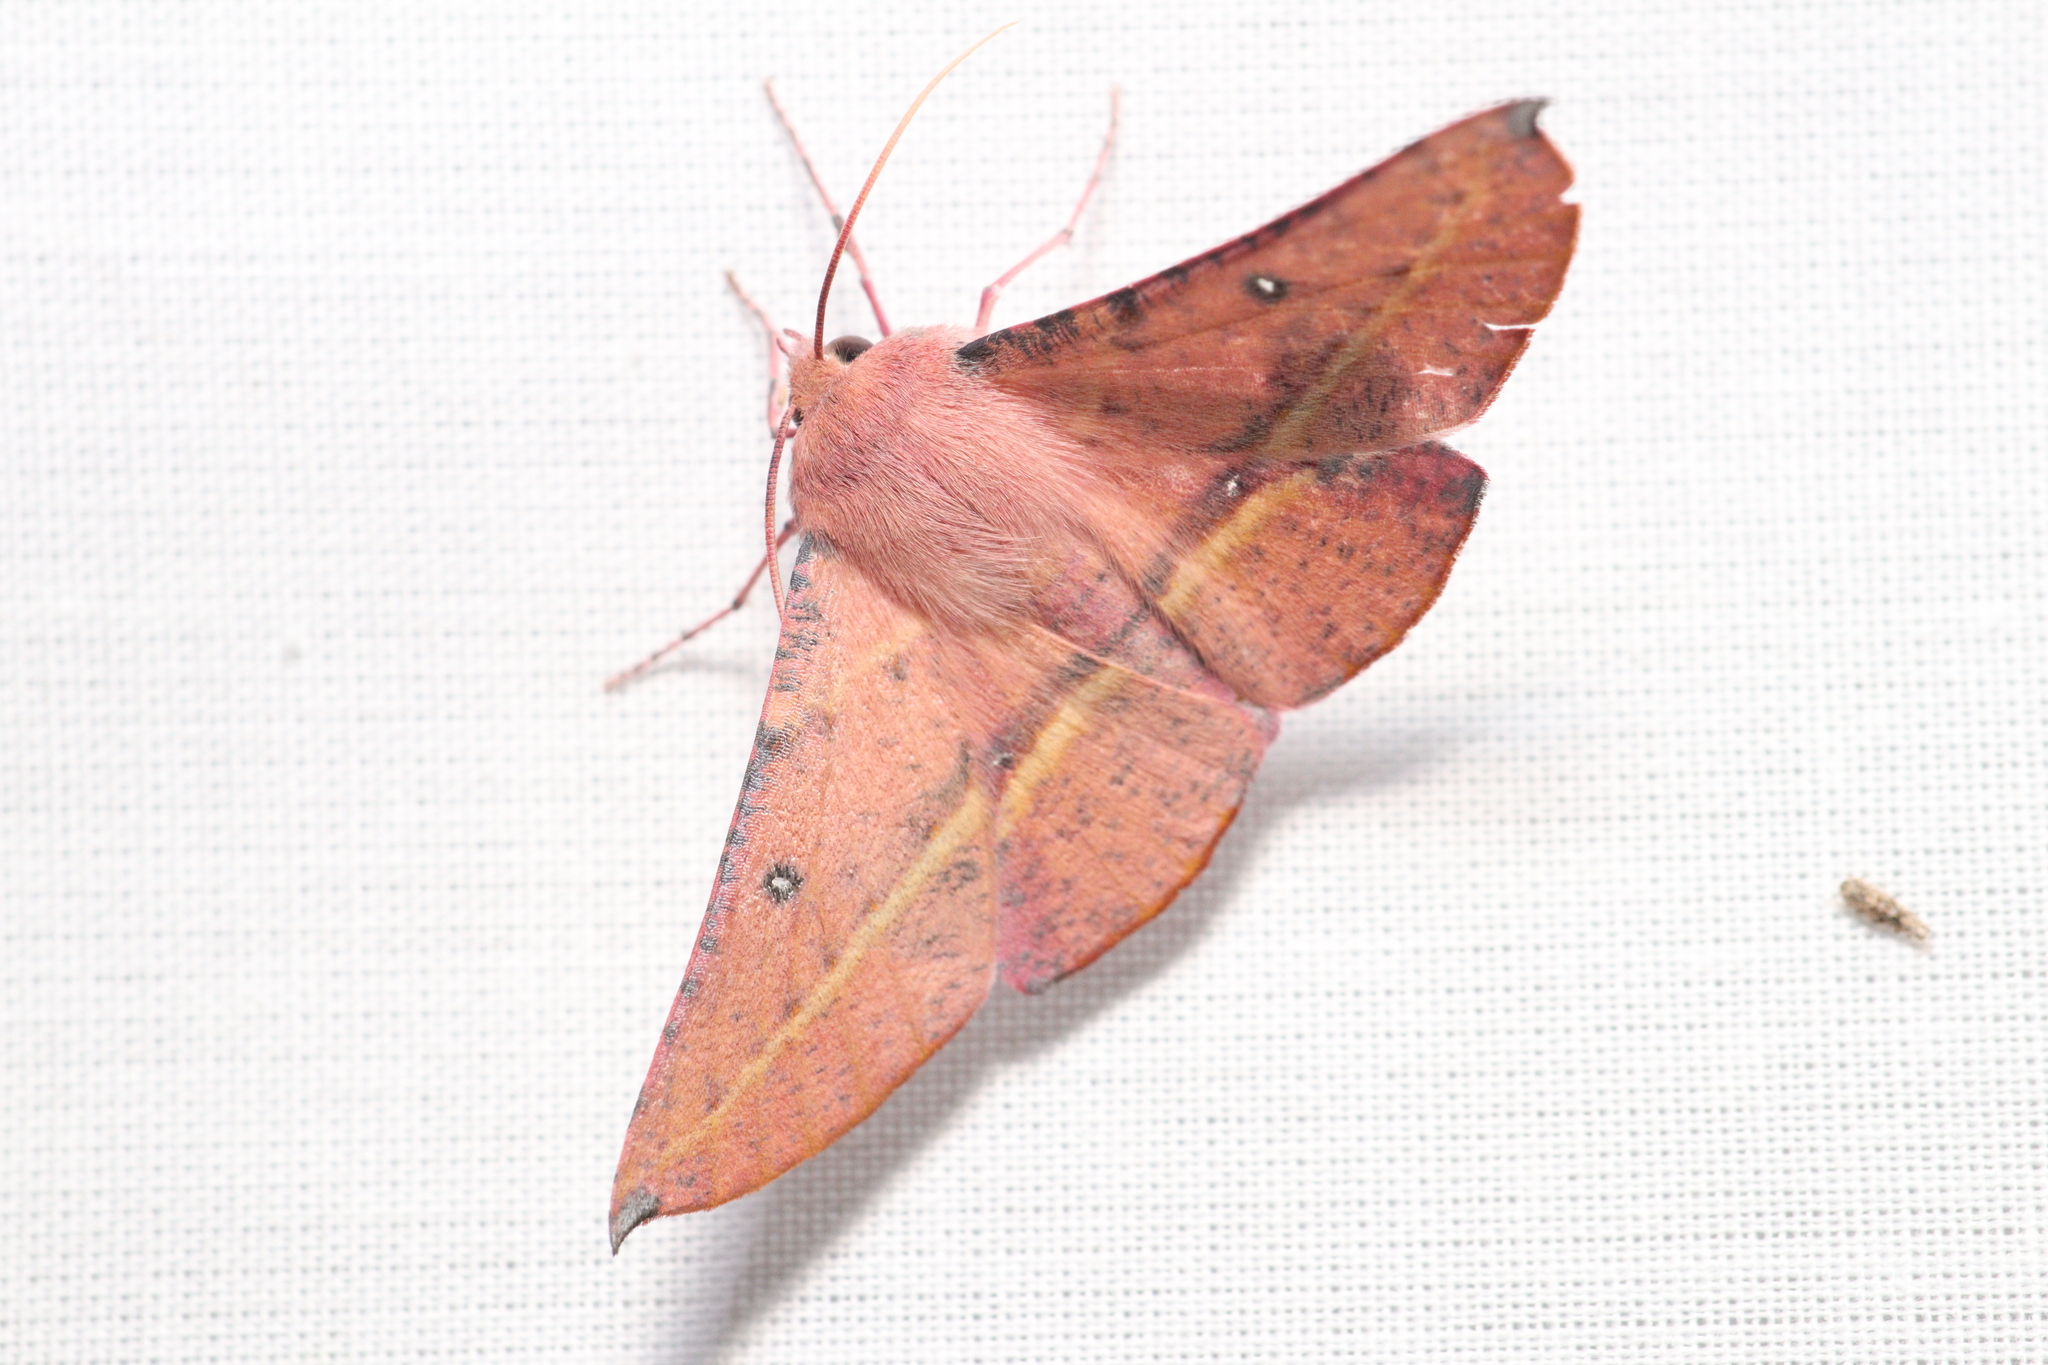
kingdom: Animalia
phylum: Arthropoda
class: Insecta
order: Lepidoptera
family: Geometridae
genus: Oenochroma
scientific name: Oenochroma vinaria
